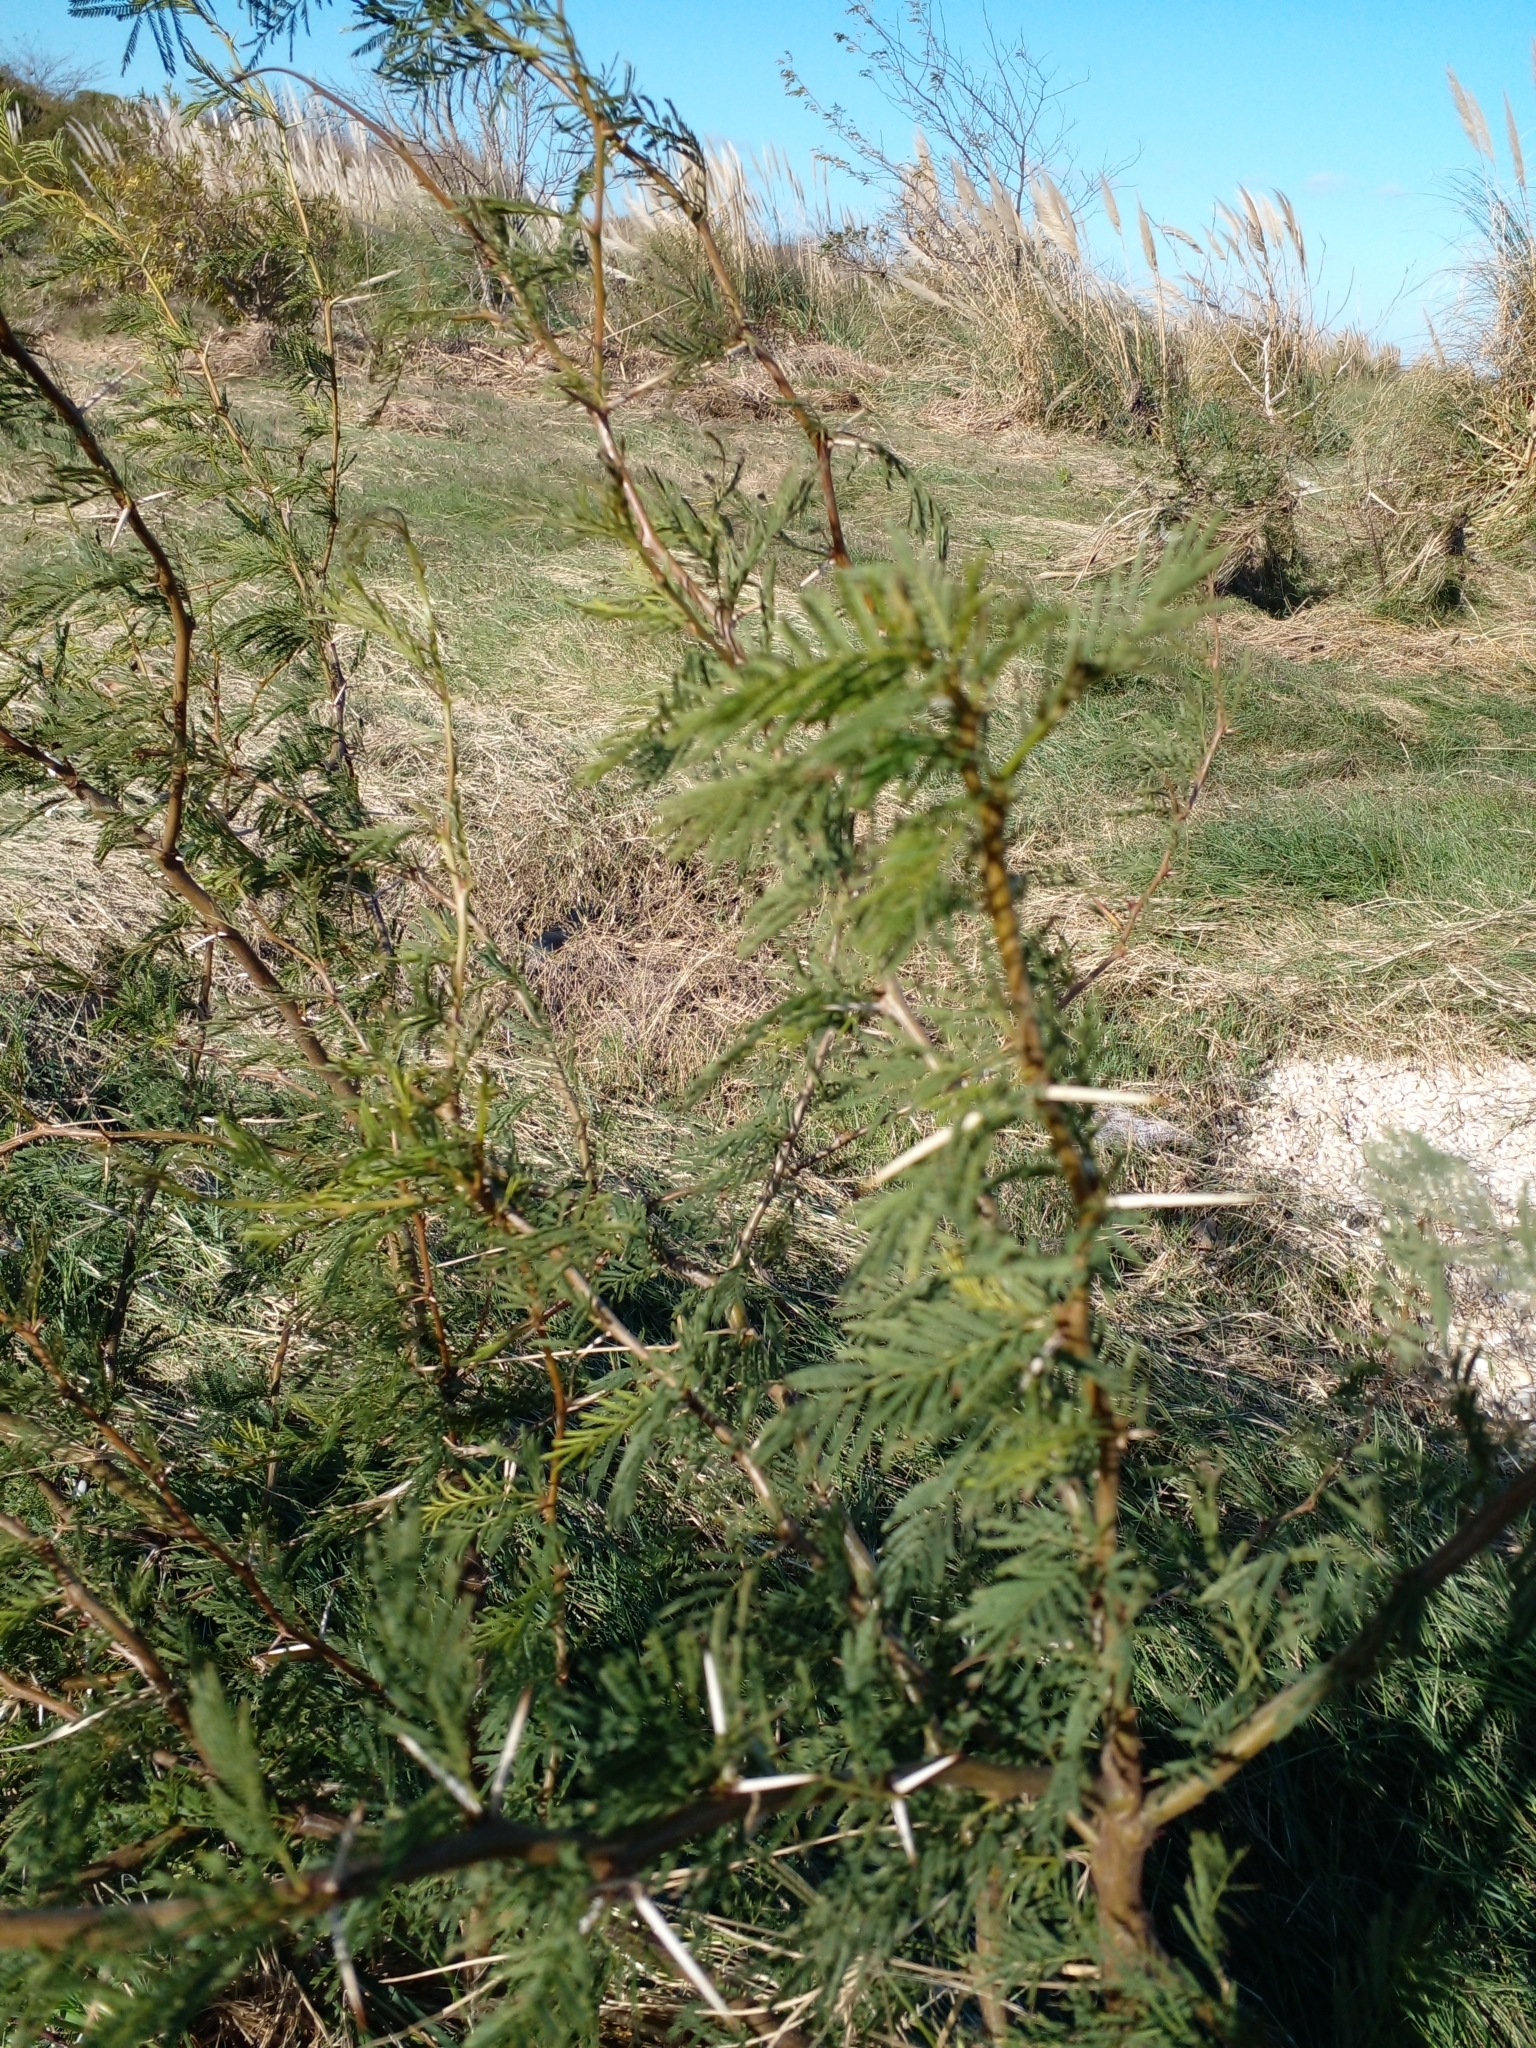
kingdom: Plantae
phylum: Tracheophyta
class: Magnoliopsida
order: Fabales
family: Fabaceae
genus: Vachellia
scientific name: Vachellia caven
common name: Roman cassie
